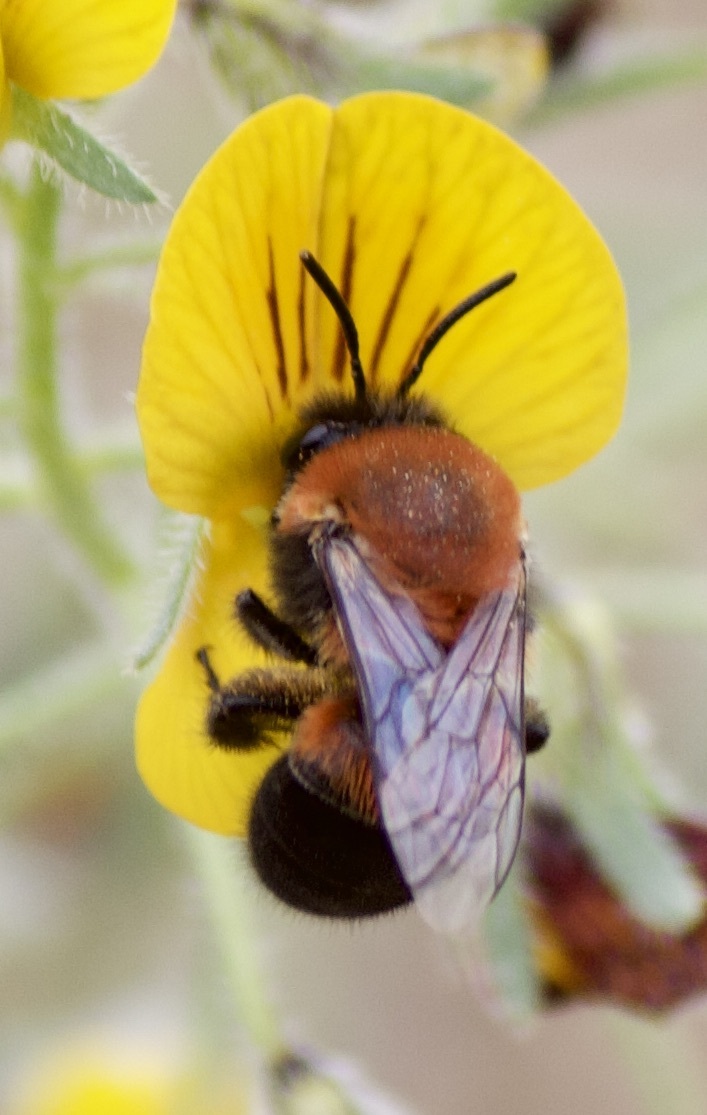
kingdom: Animalia
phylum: Arthropoda
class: Insecta
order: Hymenoptera
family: Colletidae
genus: Colletes
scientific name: Colletes atripes
